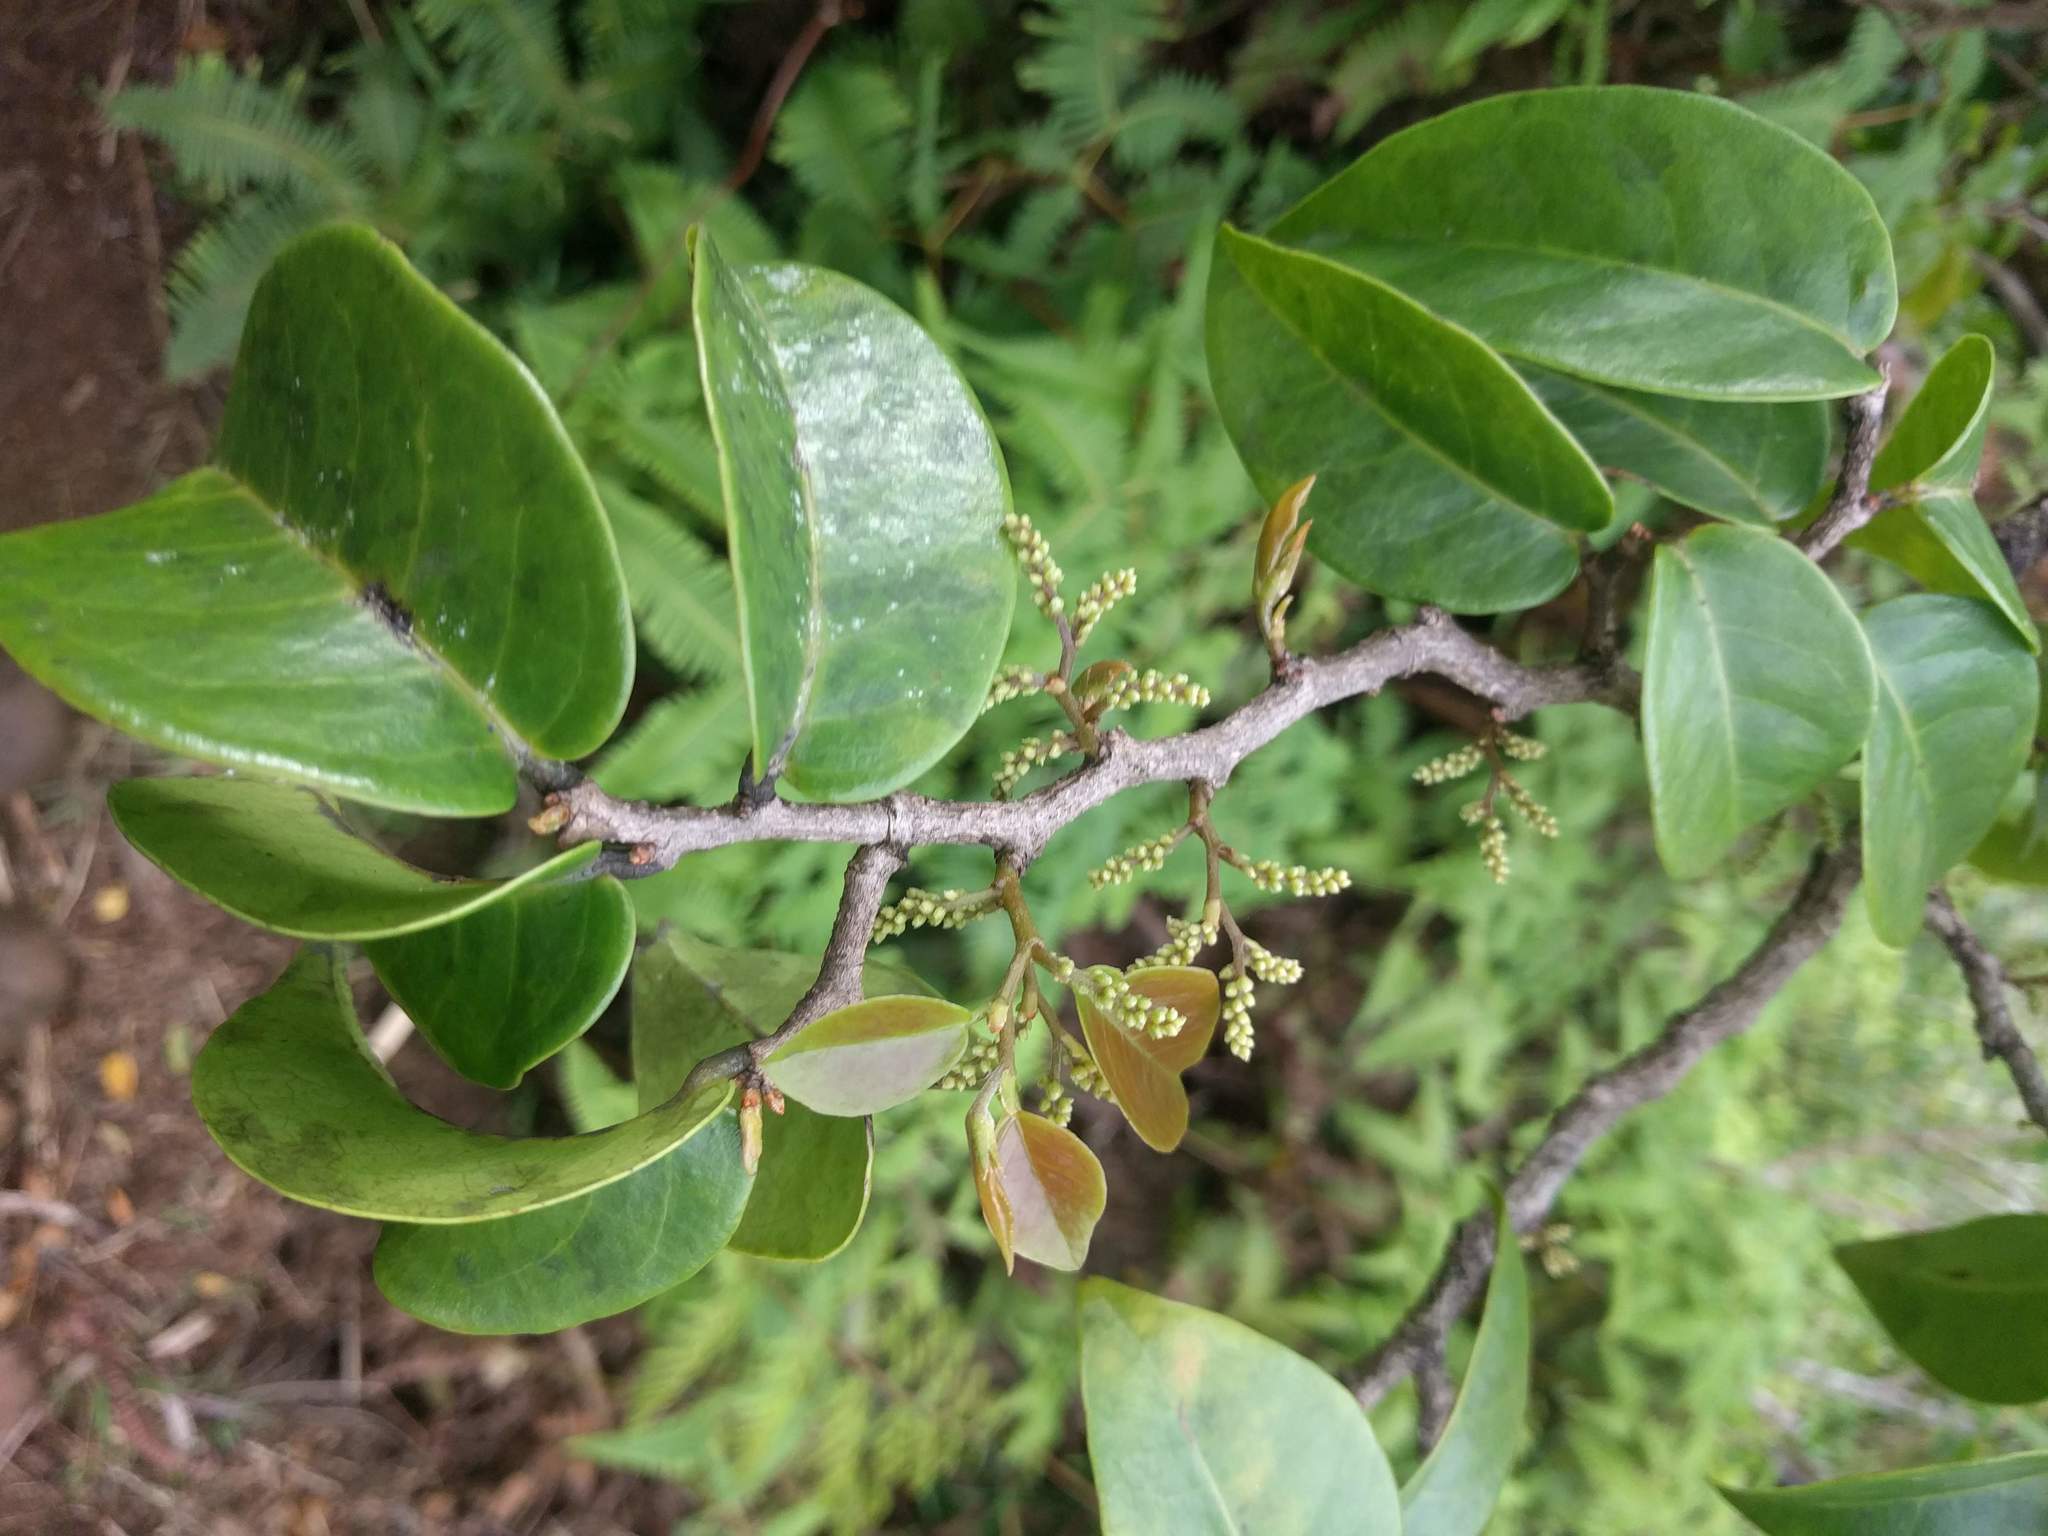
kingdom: Plantae
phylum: Tracheophyta
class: Magnoliopsida
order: Malpighiales
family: Phyllanthaceae
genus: Antidesma
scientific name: Antidesma platyphyllum
